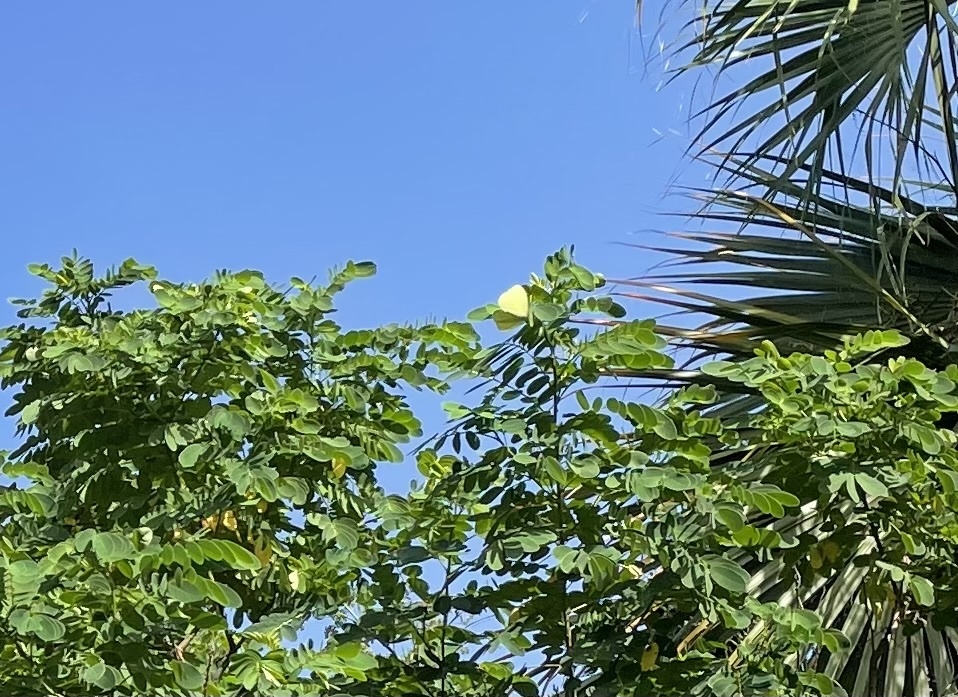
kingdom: Animalia
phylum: Arthropoda
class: Insecta
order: Lepidoptera
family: Pieridae
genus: Phoebis
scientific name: Phoebis philea
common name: Orange-barred giant sulphur
